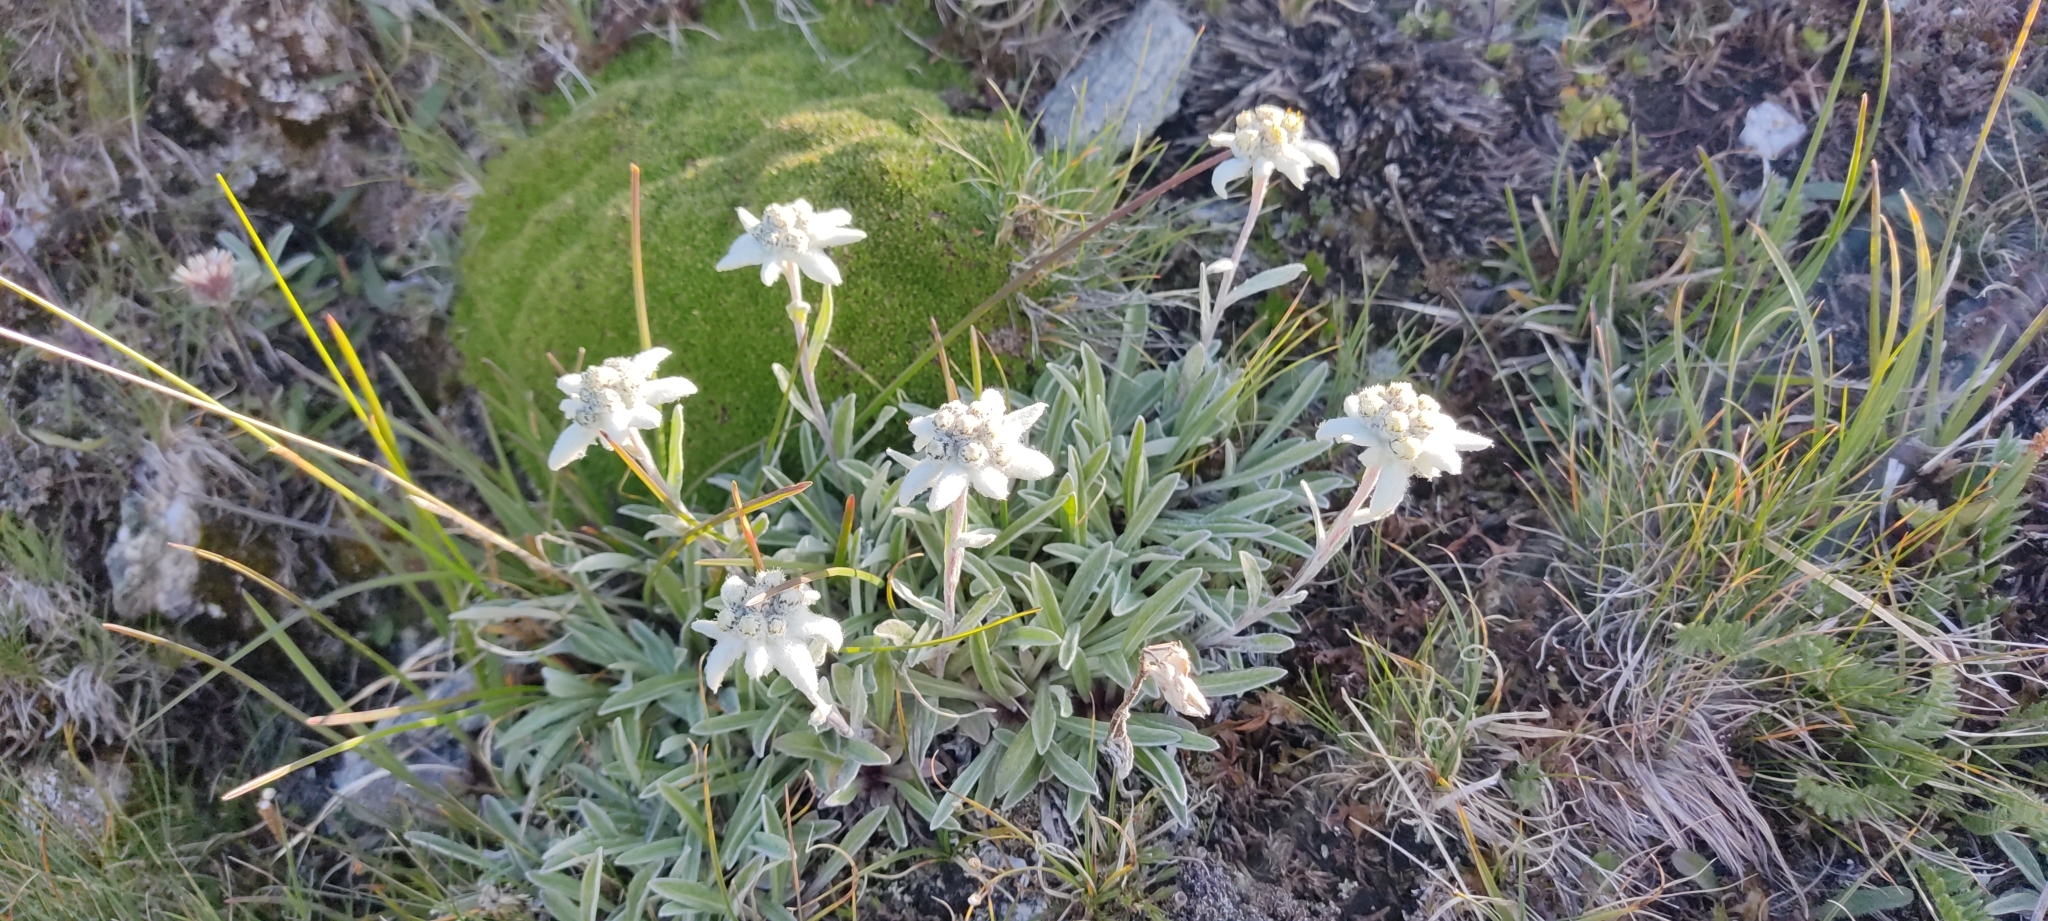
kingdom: Plantae
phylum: Tracheophyta
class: Magnoliopsida
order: Asterales
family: Asteraceae
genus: Leontopodium
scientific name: Leontopodium nivale
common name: Edelweiss
